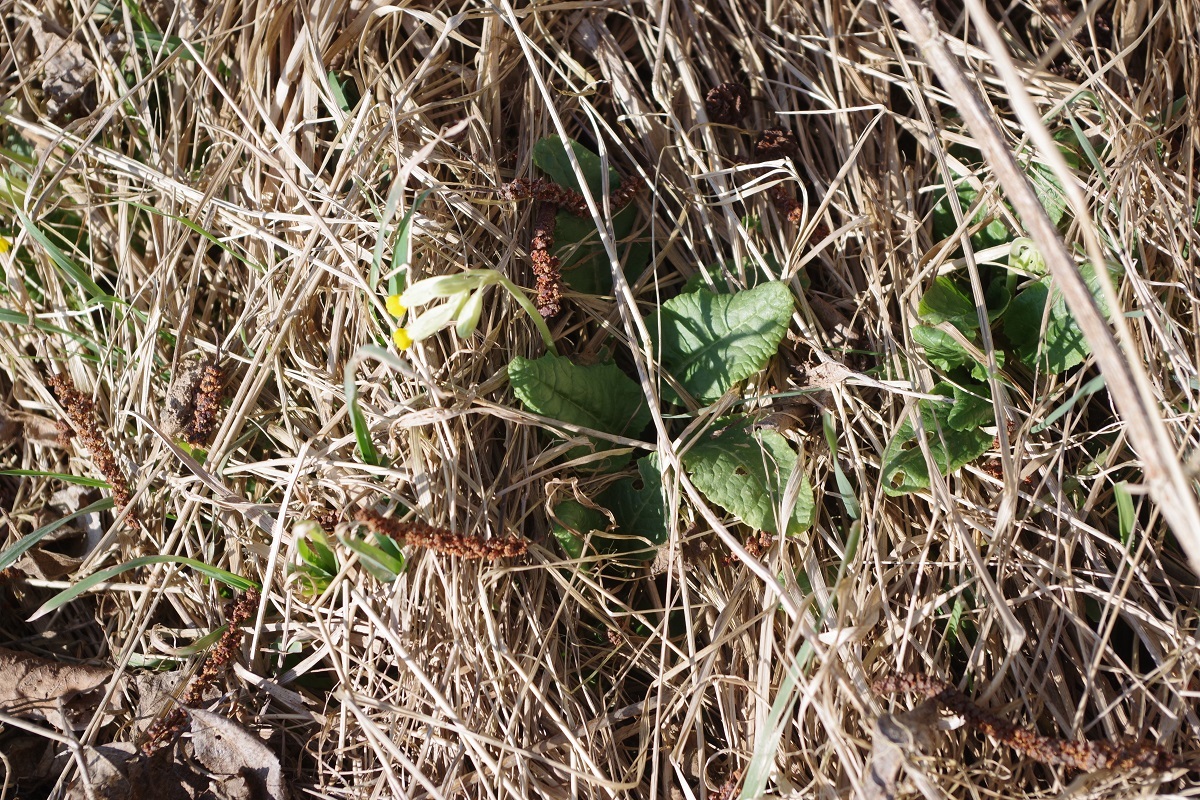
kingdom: Plantae
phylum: Tracheophyta
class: Magnoliopsida
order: Ericales
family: Primulaceae
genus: Primula
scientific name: Primula veris
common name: Cowslip
